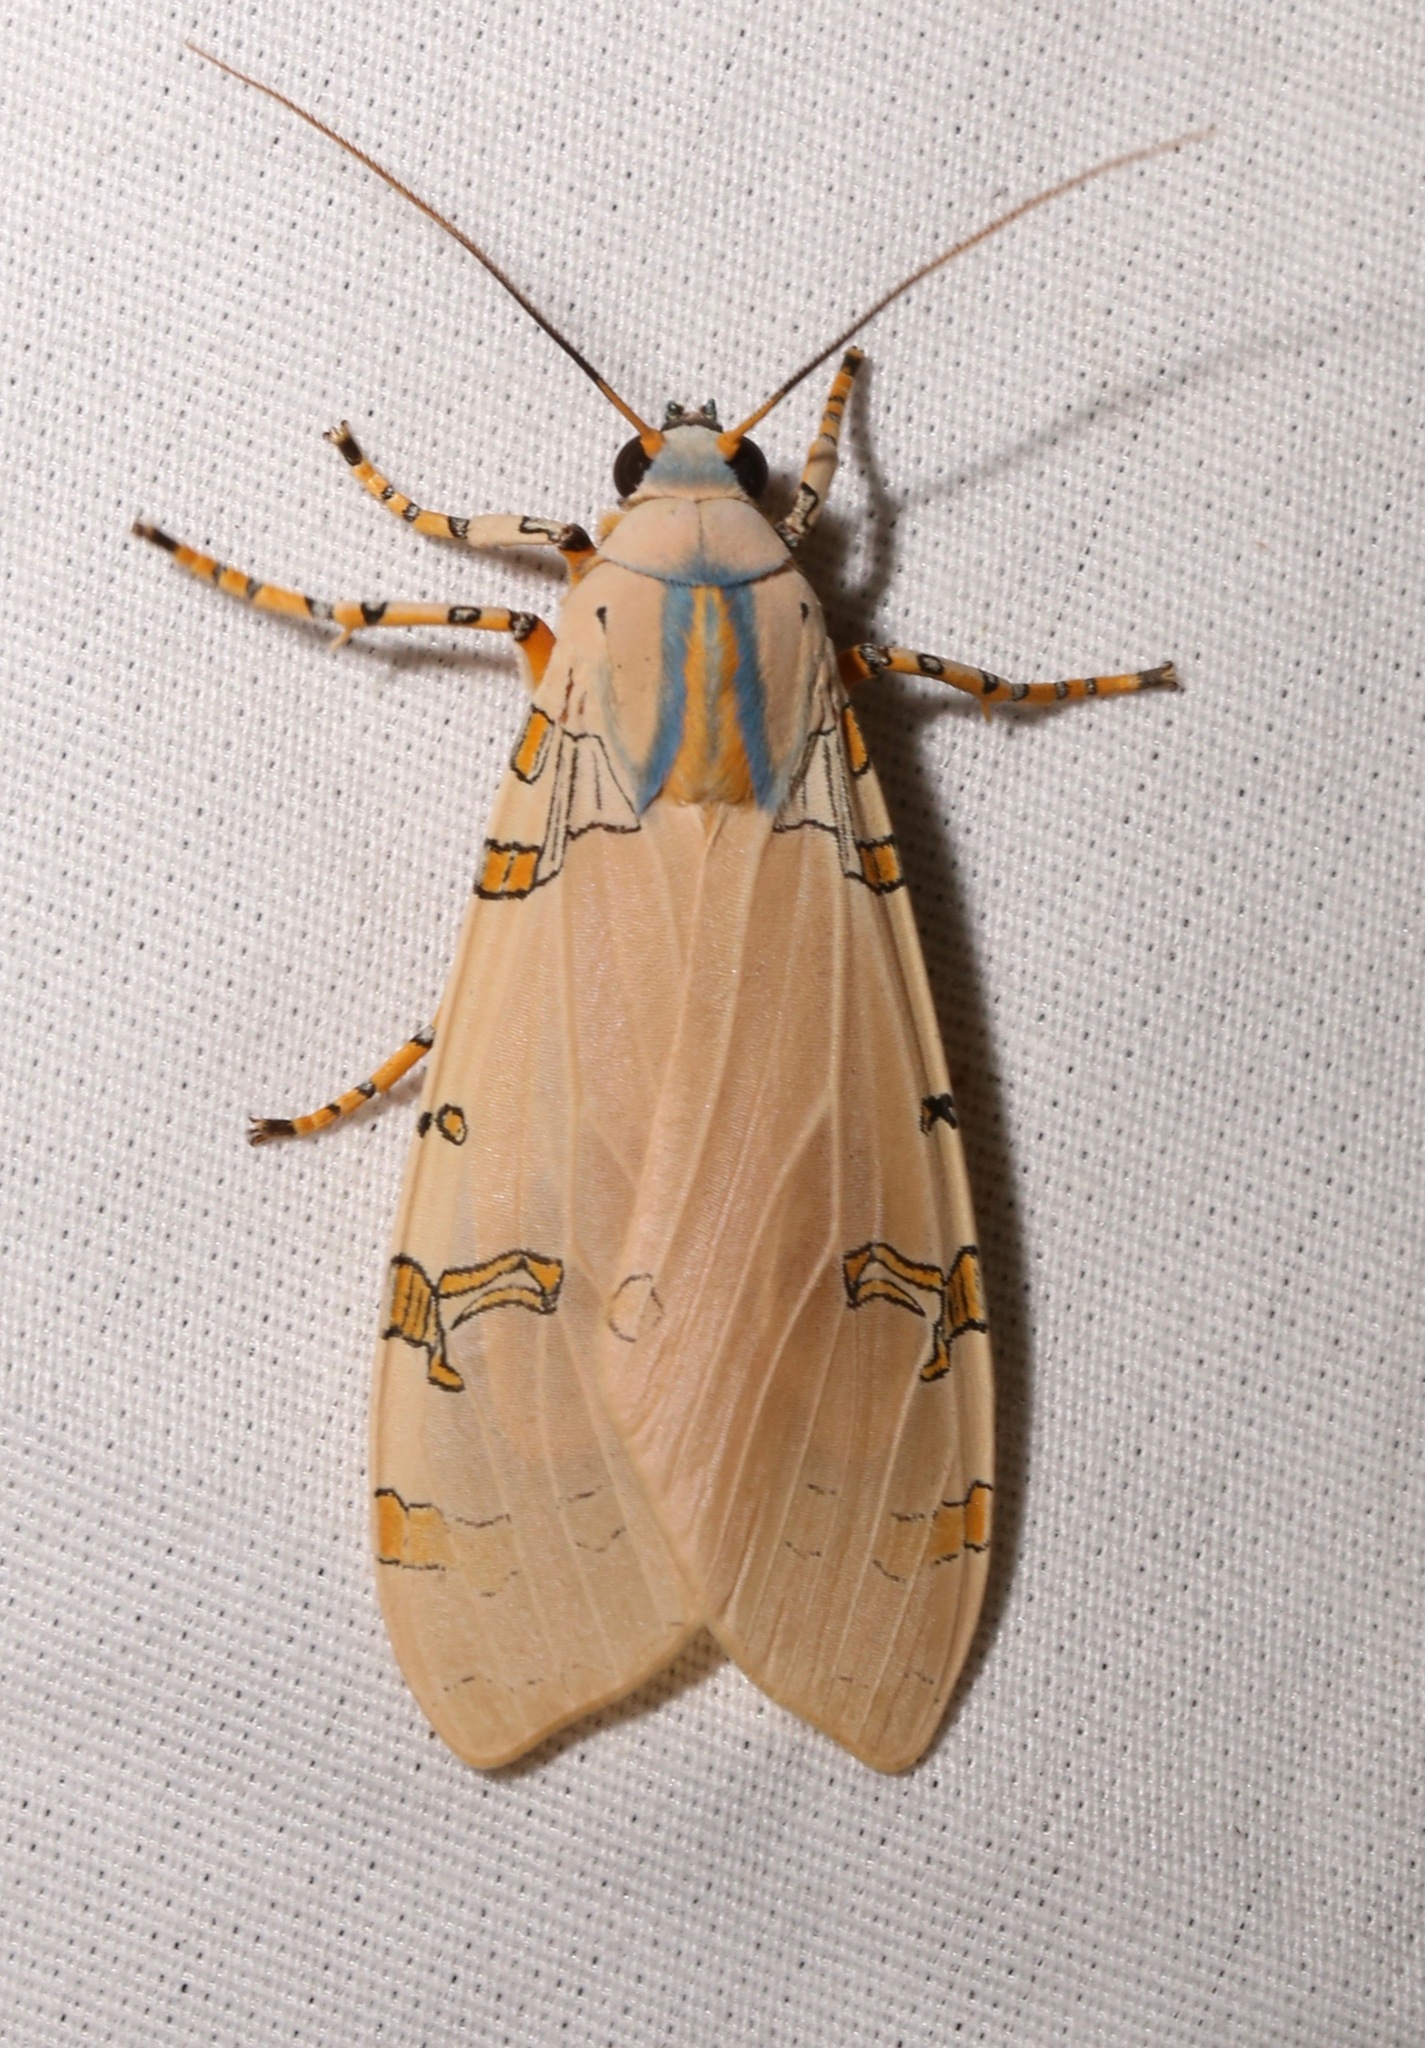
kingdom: Animalia
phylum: Arthropoda
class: Insecta
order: Lepidoptera
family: Erebidae
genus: Halysidota
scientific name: Halysidota davisii
